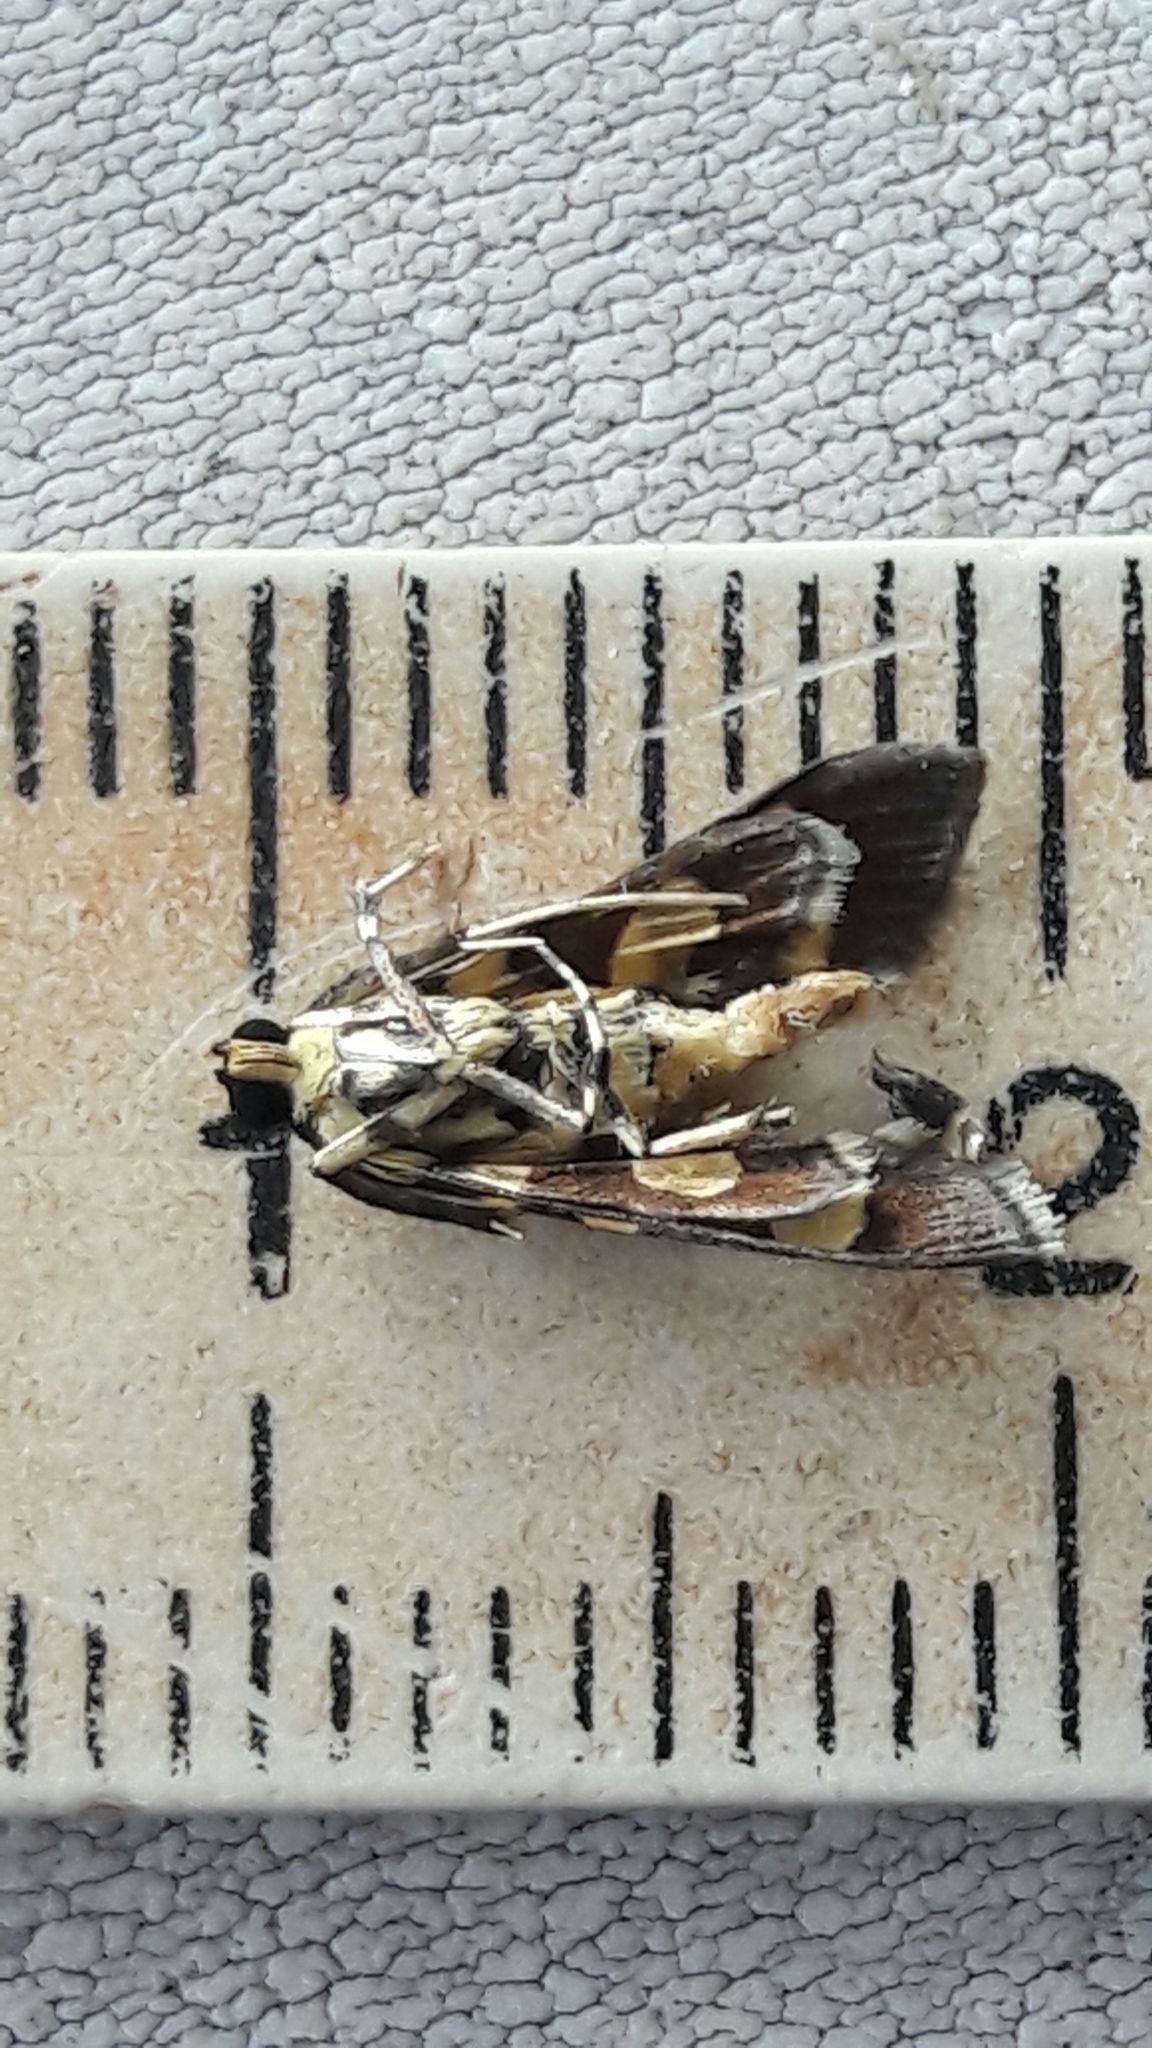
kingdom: Animalia
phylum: Arthropoda
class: Insecta
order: Lepidoptera
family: Crambidae
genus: Syngamia
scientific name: Syngamia florella
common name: Orange-spotted flower moth
